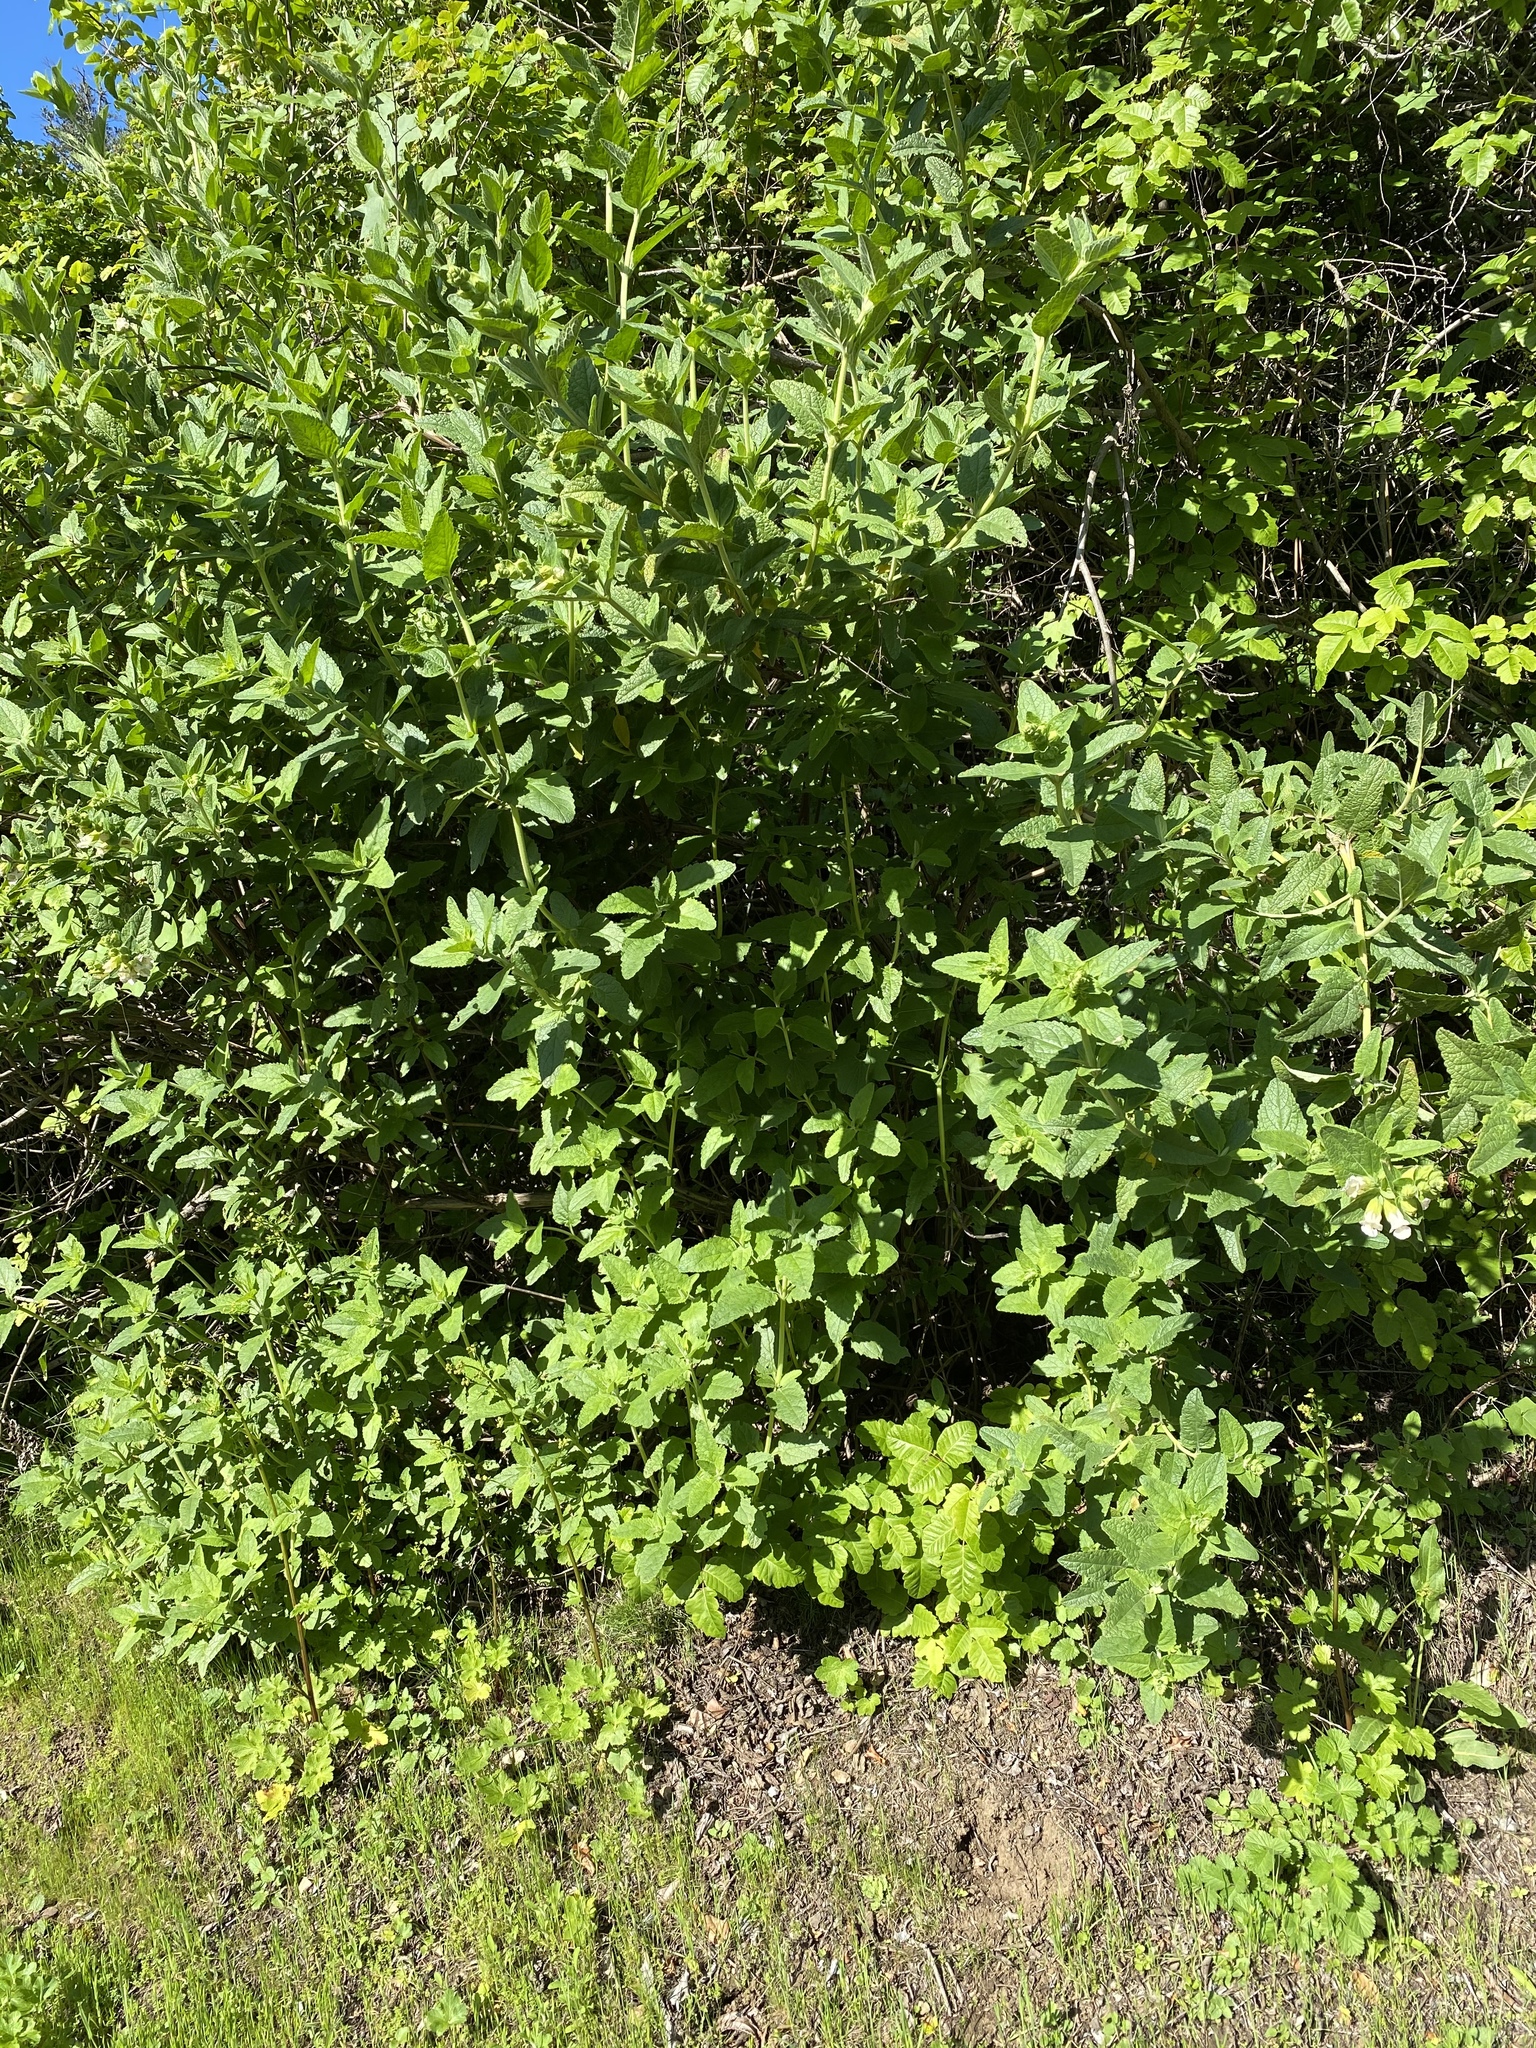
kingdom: Plantae
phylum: Tracheophyta
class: Magnoliopsida
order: Lamiales
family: Lamiaceae
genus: Lepechinia
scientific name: Lepechinia calycina
